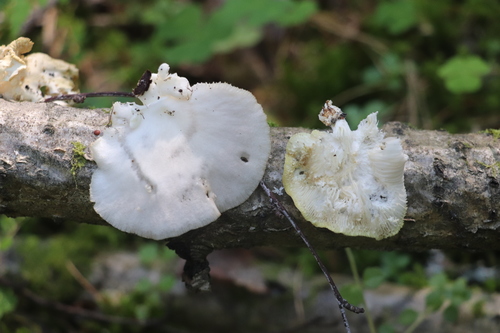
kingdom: Fungi
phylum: Basidiomycota
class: Agaricomycetes
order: Agaricales
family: Pleurotaceae
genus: Pleurotus
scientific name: Pleurotus pulmonarius
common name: Pale oyster
